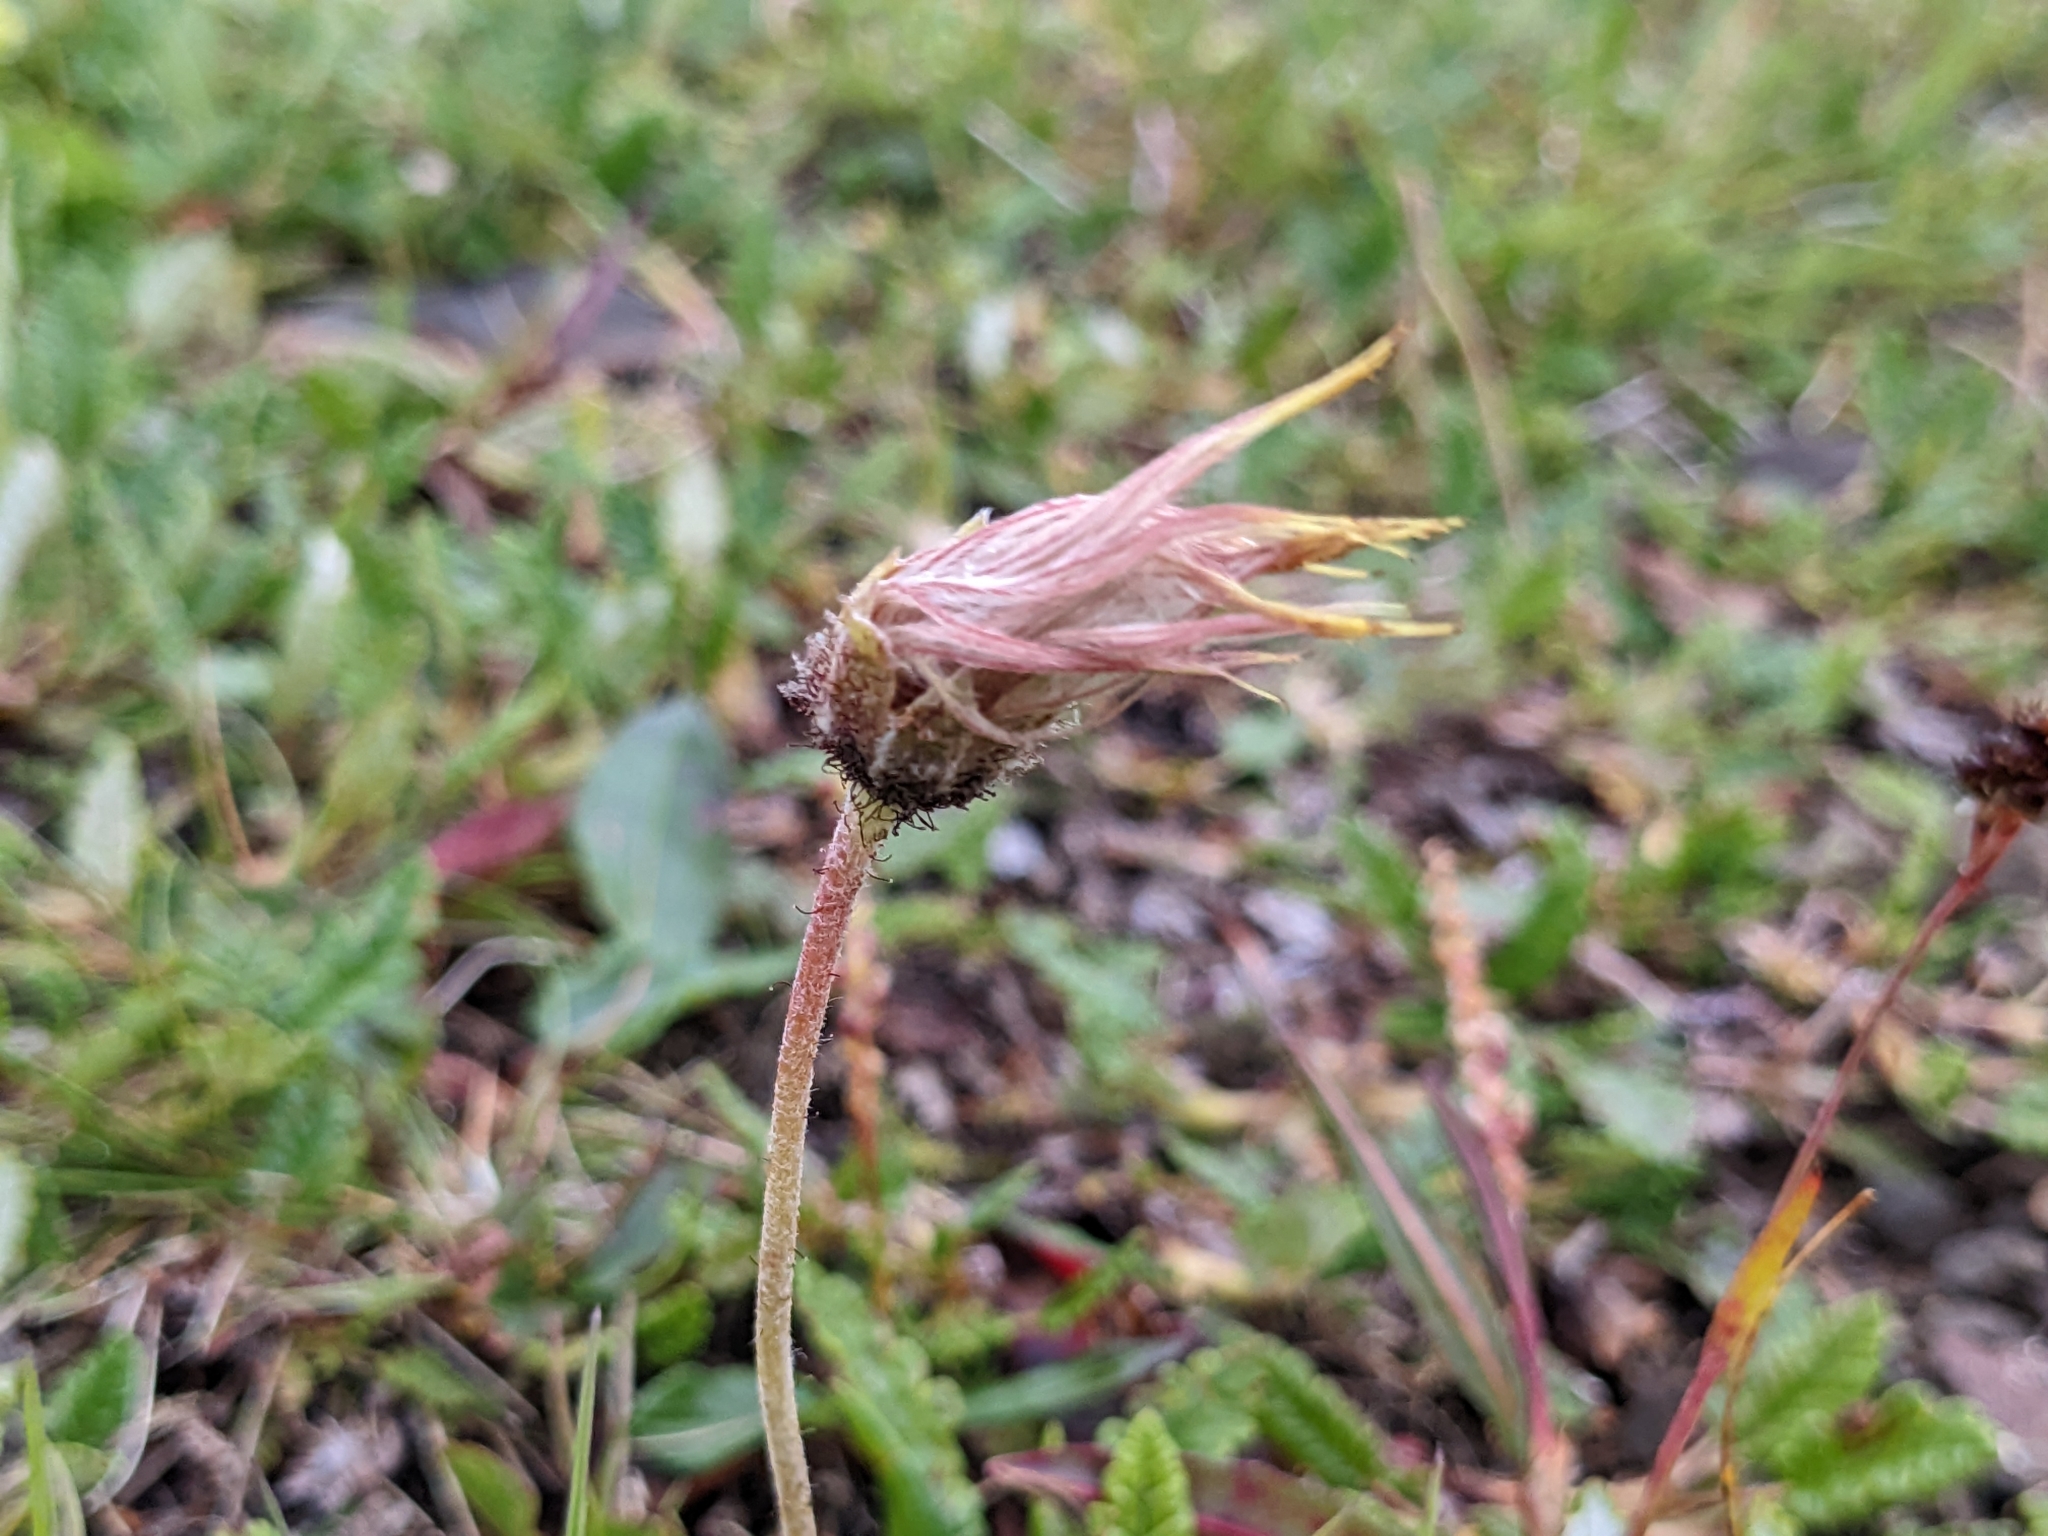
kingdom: Plantae
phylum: Tracheophyta
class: Magnoliopsida
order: Rosales
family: Rosaceae
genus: Dryas
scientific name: Dryas octopetala
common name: Eight-petal mountain-avens
